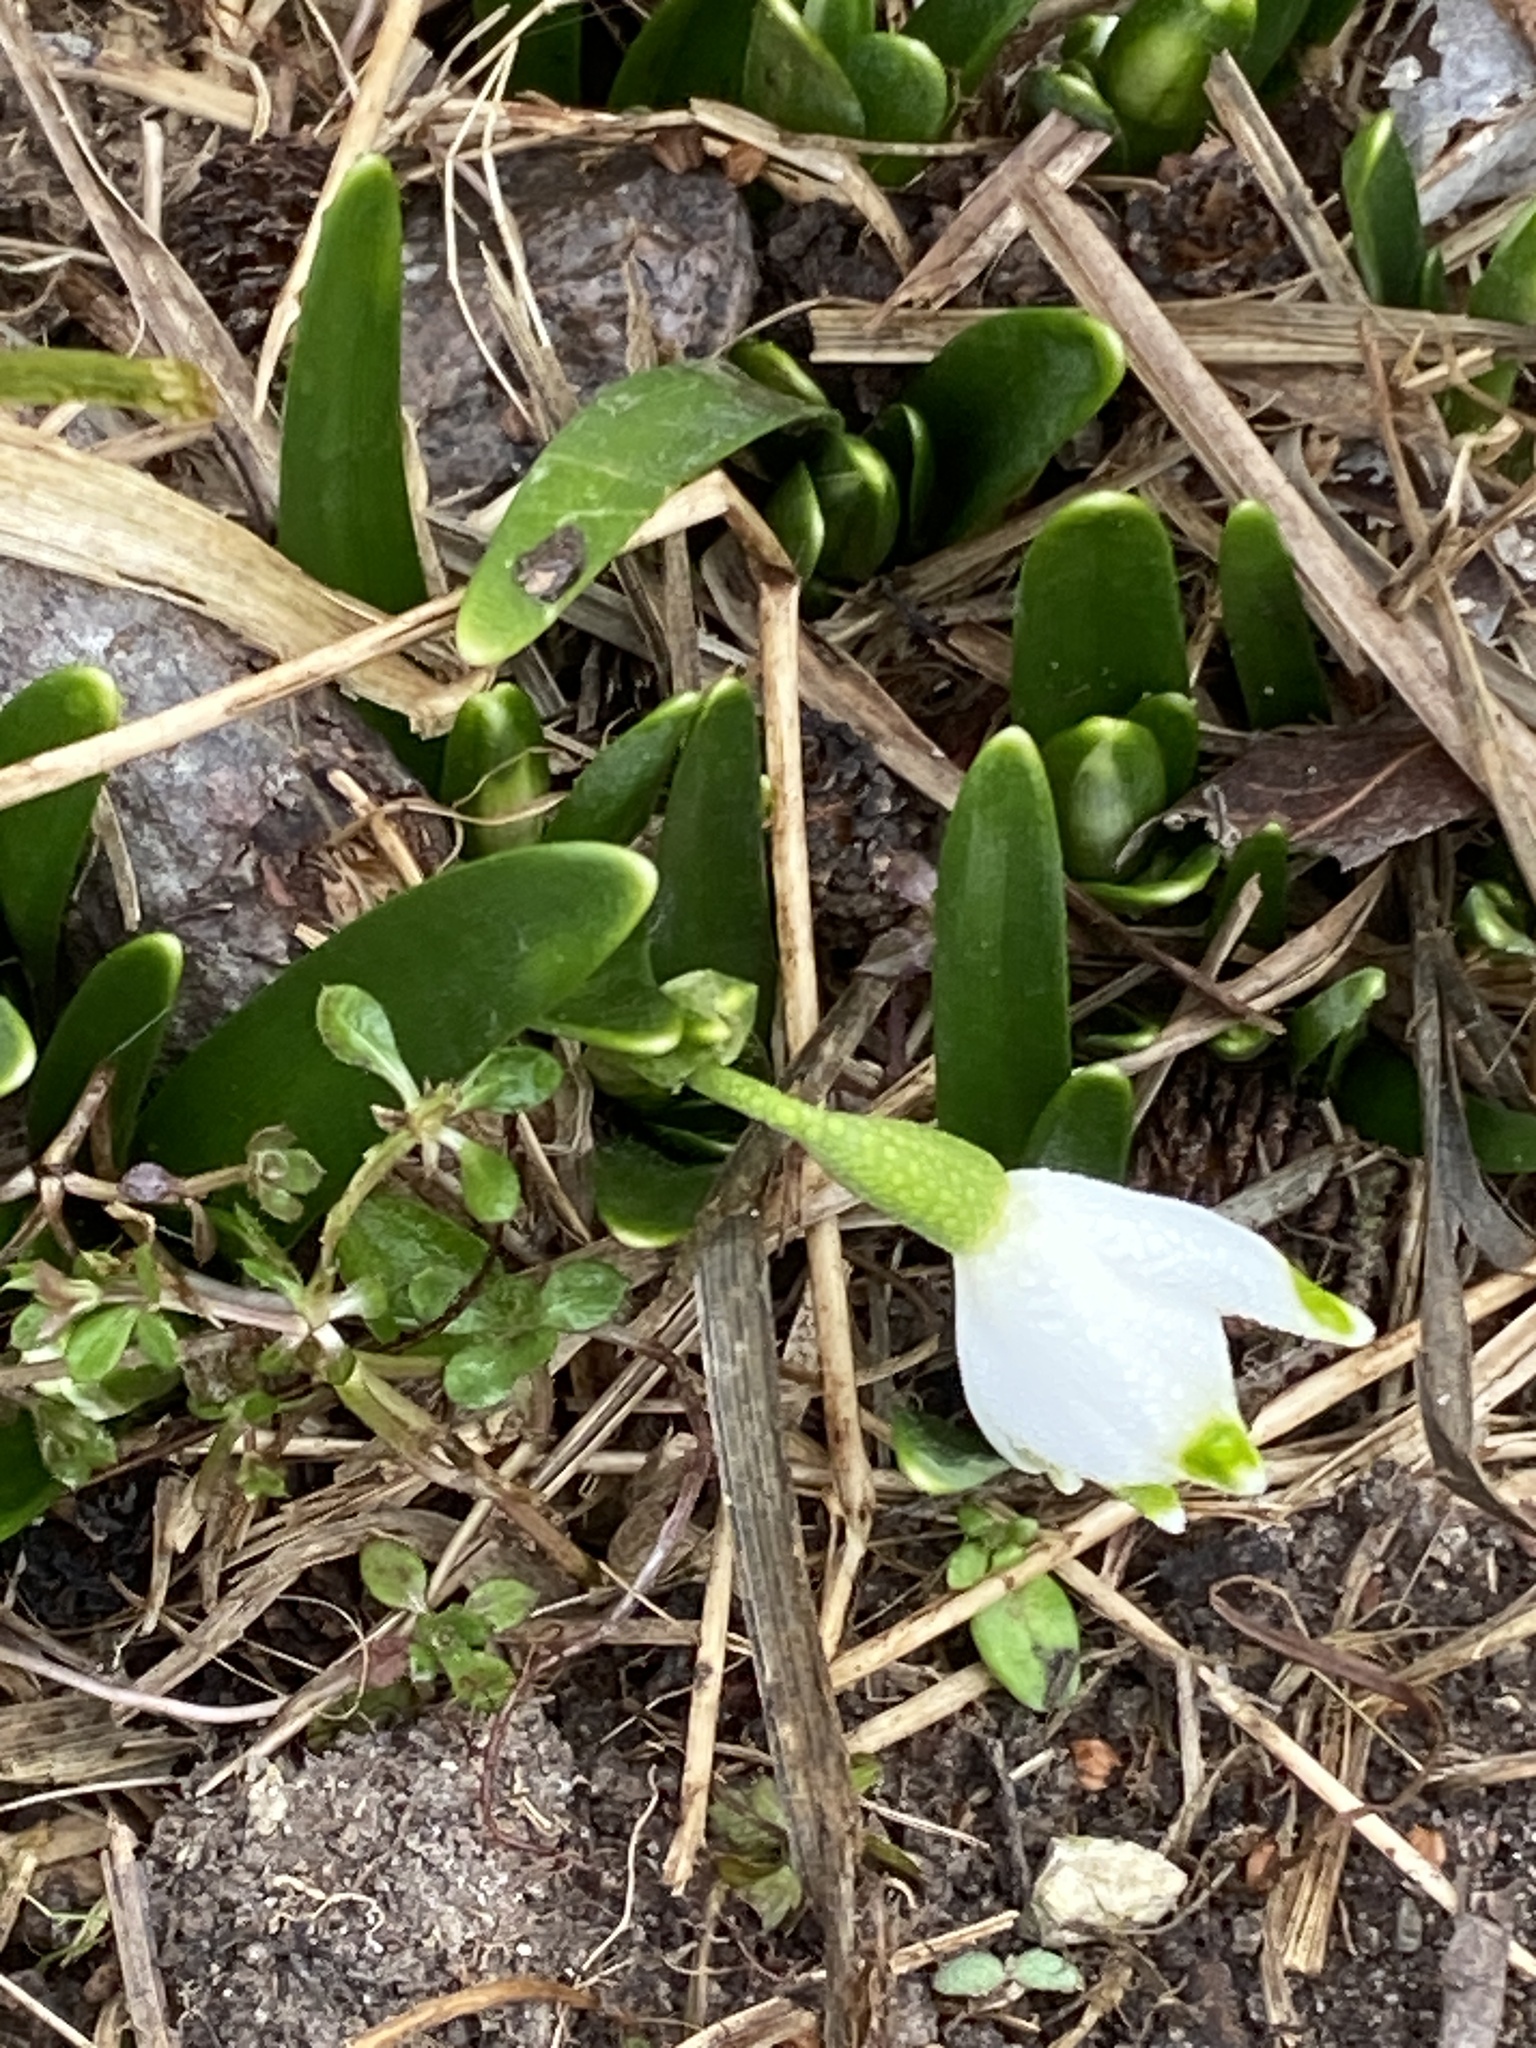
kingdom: Plantae
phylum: Tracheophyta
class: Liliopsida
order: Asparagales
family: Amaryllidaceae
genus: Leucojum
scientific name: Leucojum vernum
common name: Spring snowflake
